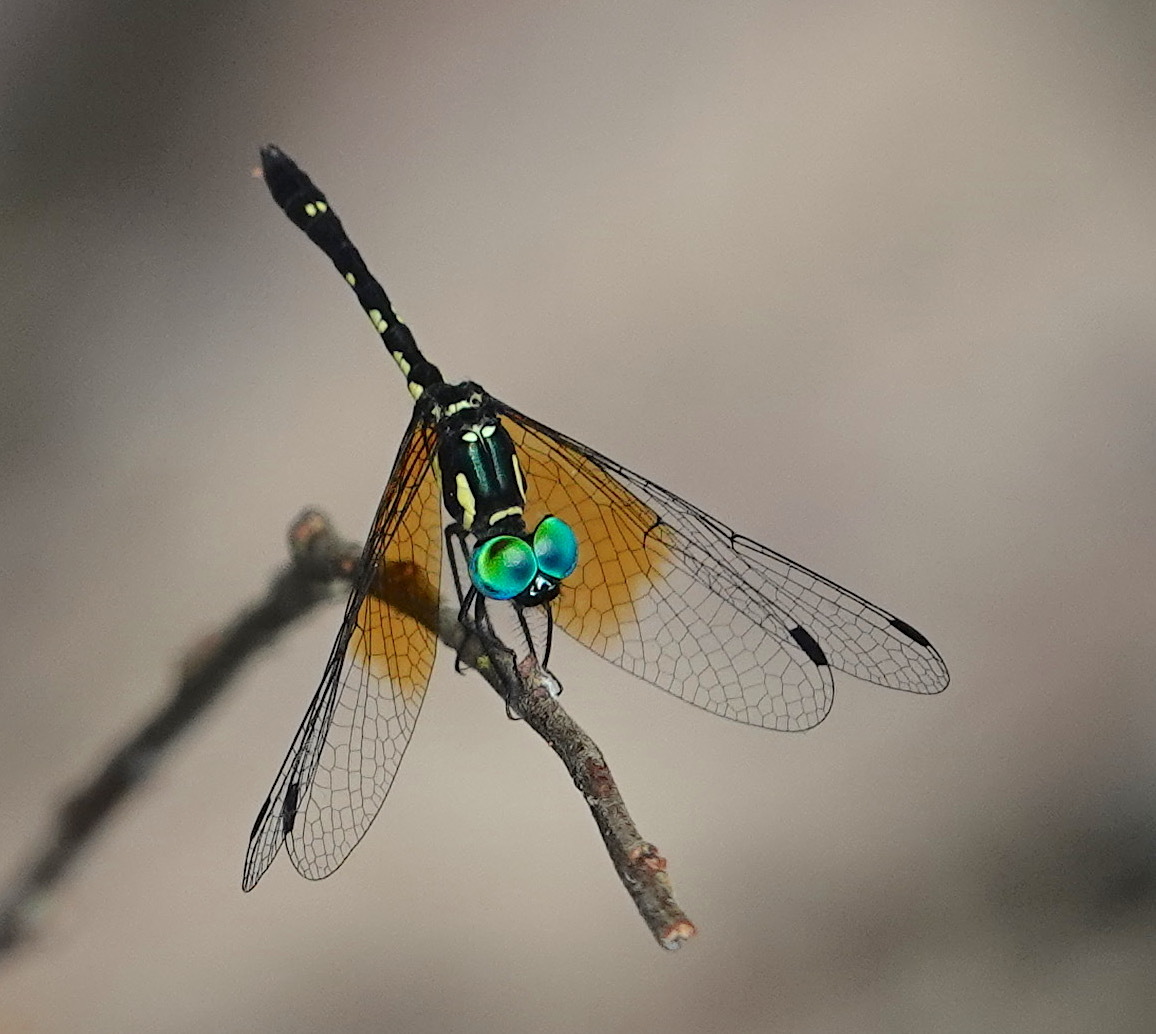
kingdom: Animalia
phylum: Arthropoda
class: Insecta
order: Odonata
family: Libellulidae
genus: Tetrathemis
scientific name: Tetrathemis platyptera
